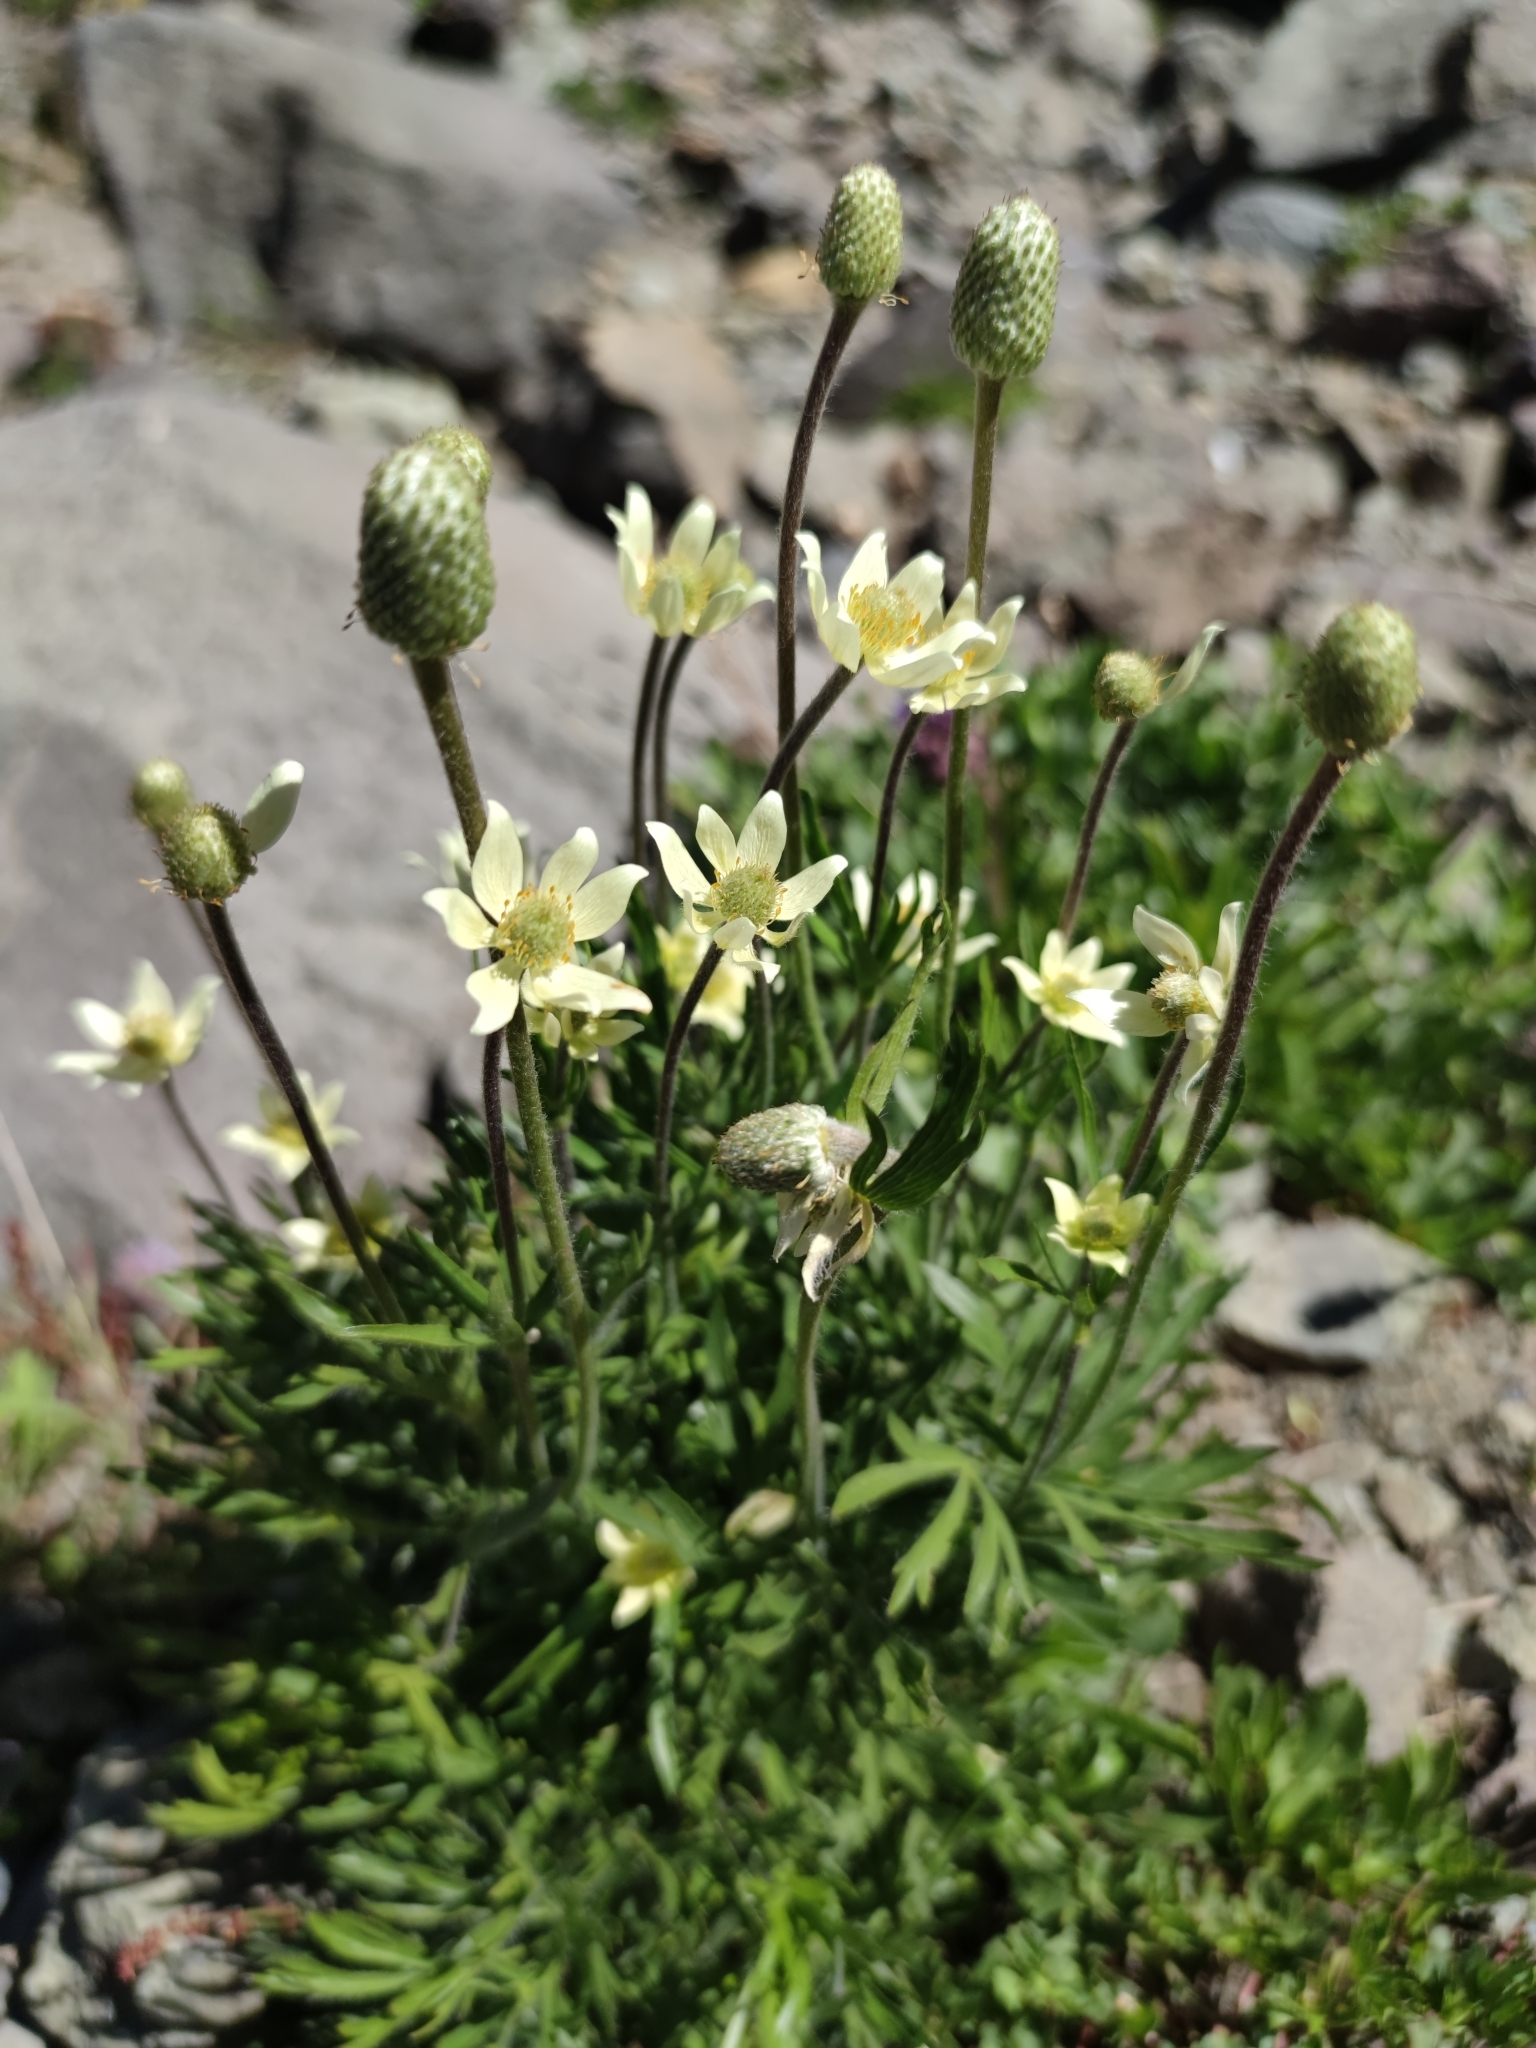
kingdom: Plantae
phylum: Tracheophyta
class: Magnoliopsida
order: Ranunculales
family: Ranunculaceae
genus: Anemone
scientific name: Anemone multifida
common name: Bird's-foot anemone
